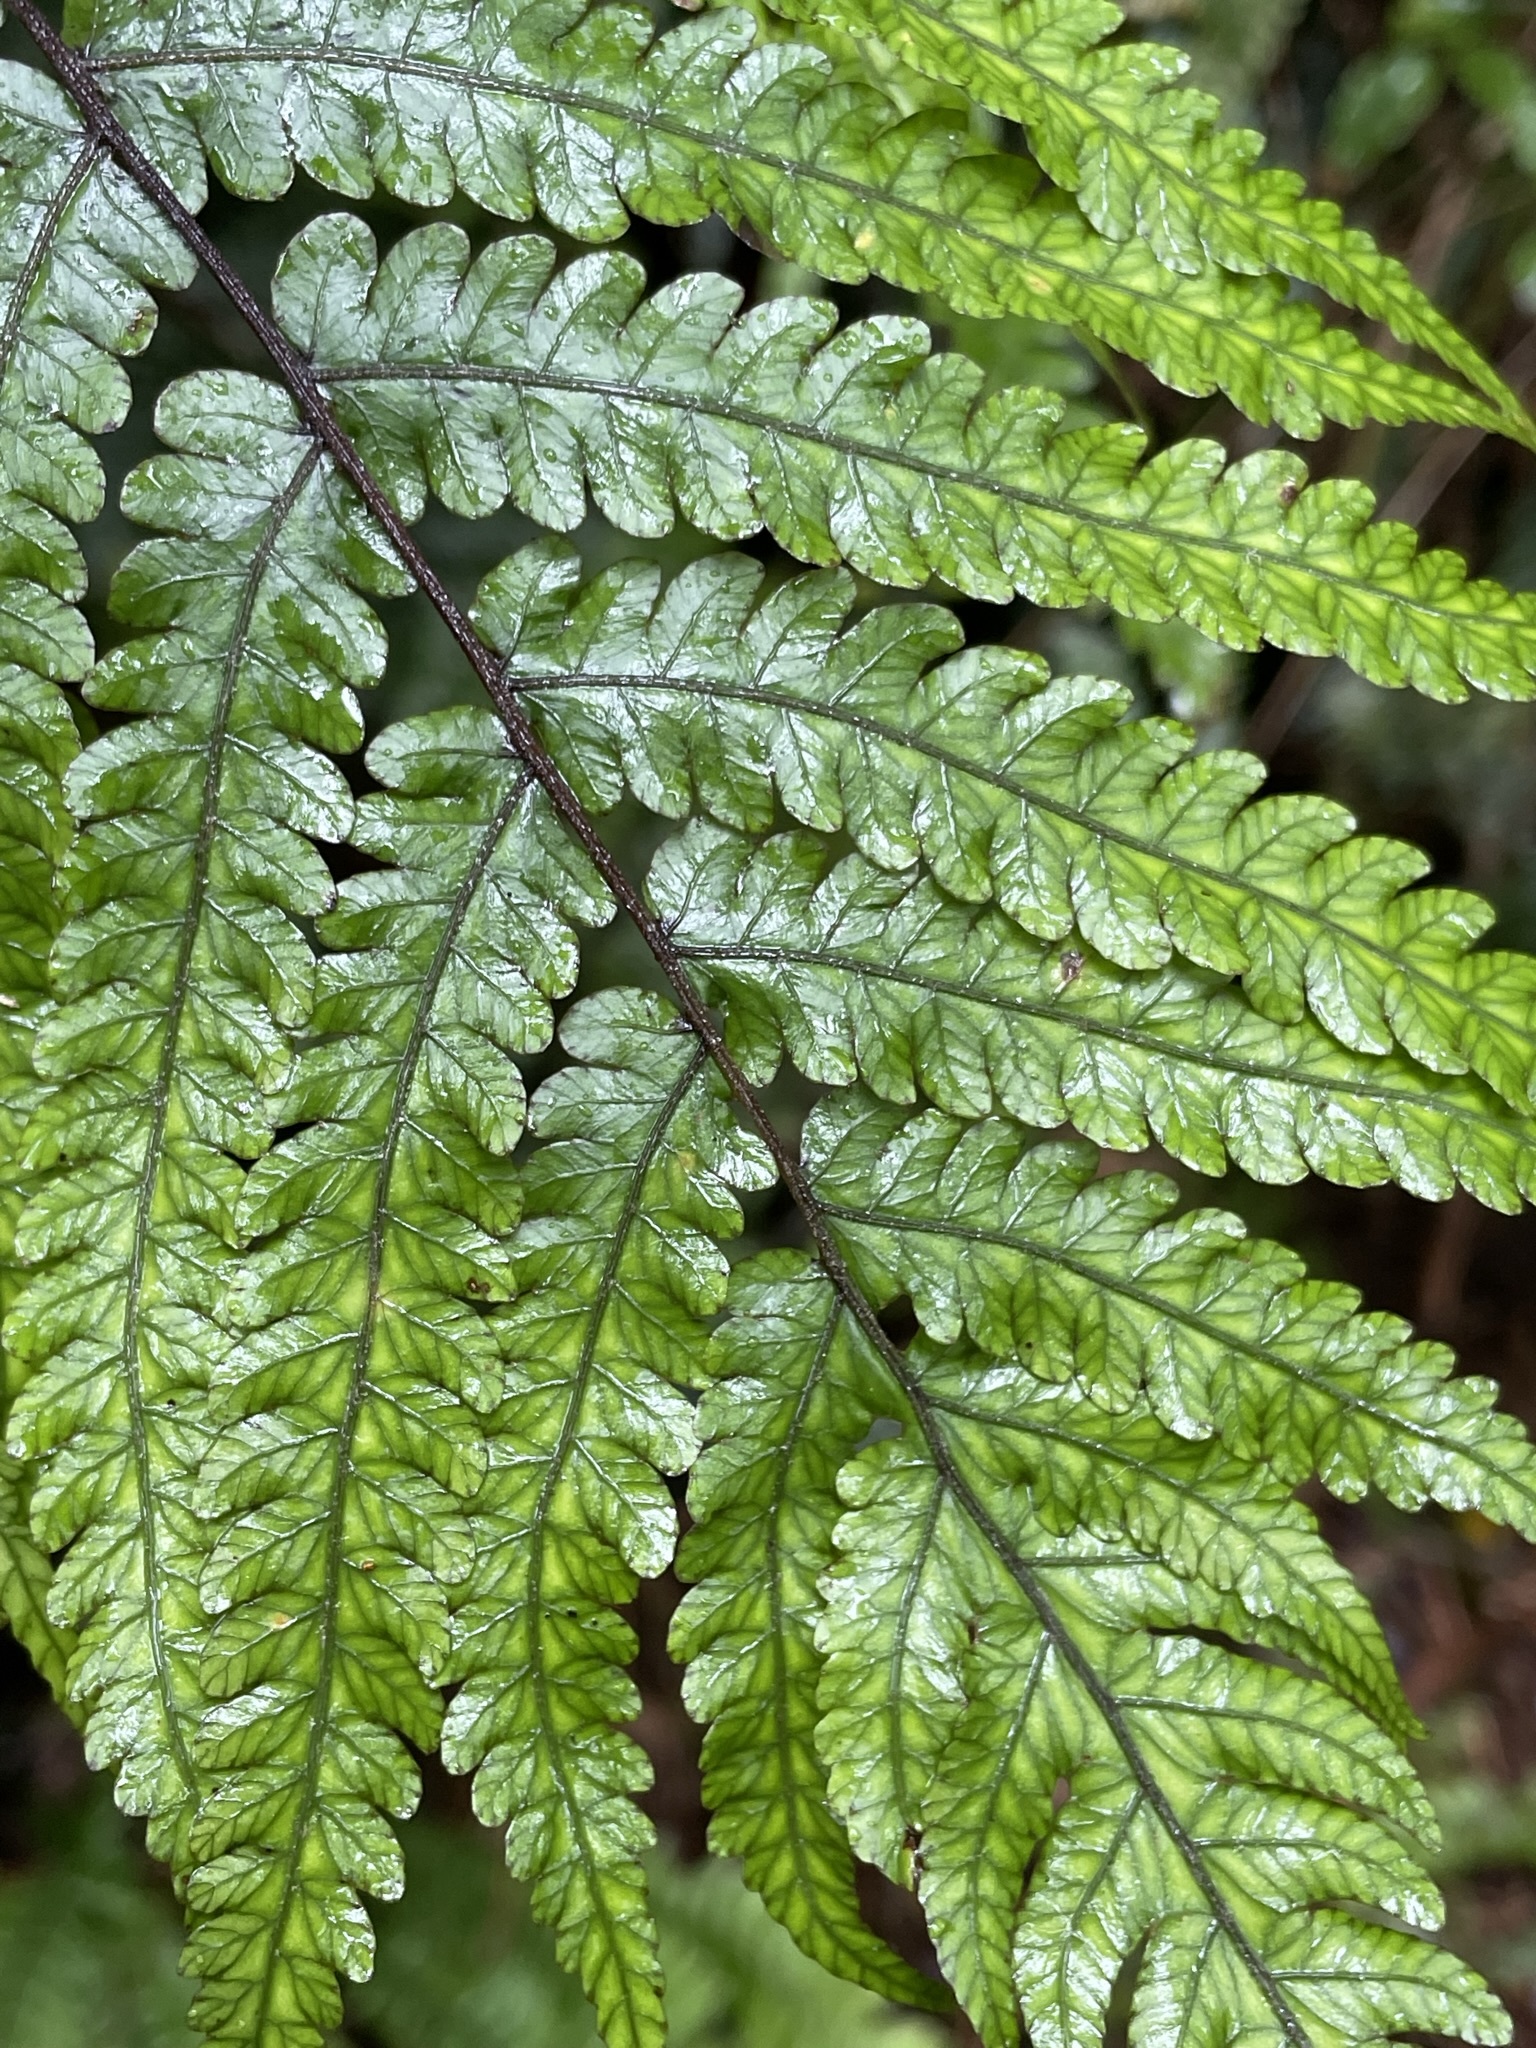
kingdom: Plantae
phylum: Tracheophyta
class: Polypodiopsida
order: Polypodiales
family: Thelypteridaceae
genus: Pakau
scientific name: Pakau pennigera
